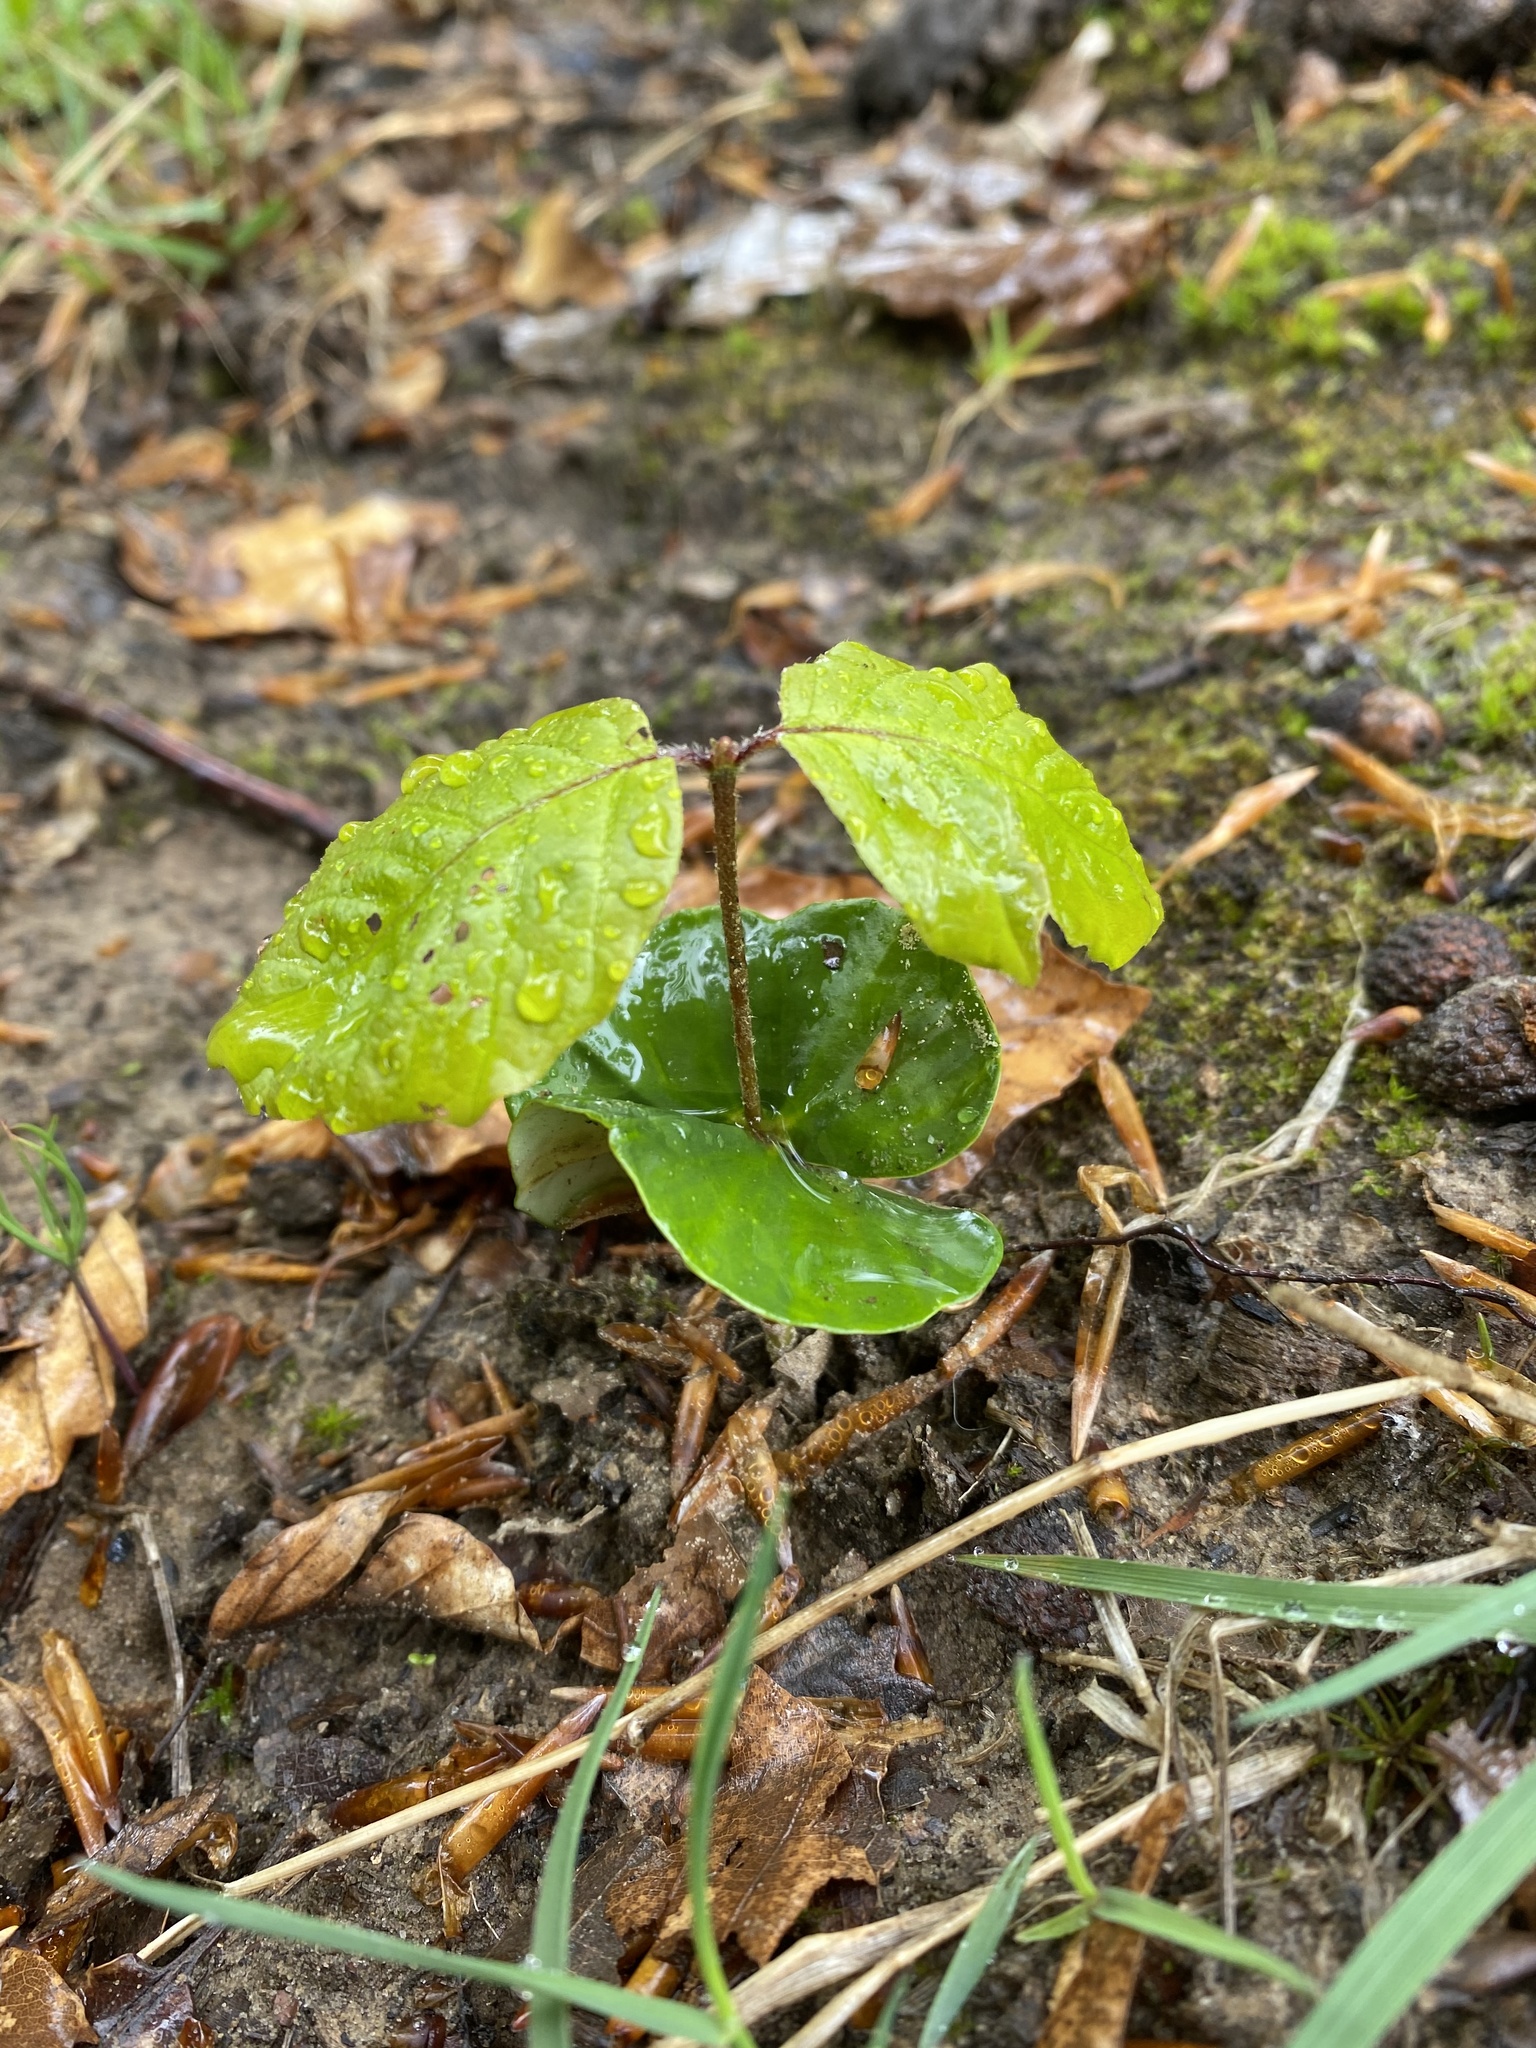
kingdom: Plantae
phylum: Tracheophyta
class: Magnoliopsida
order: Fagales
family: Fagaceae
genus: Fagus
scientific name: Fagus sylvatica
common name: Beech
